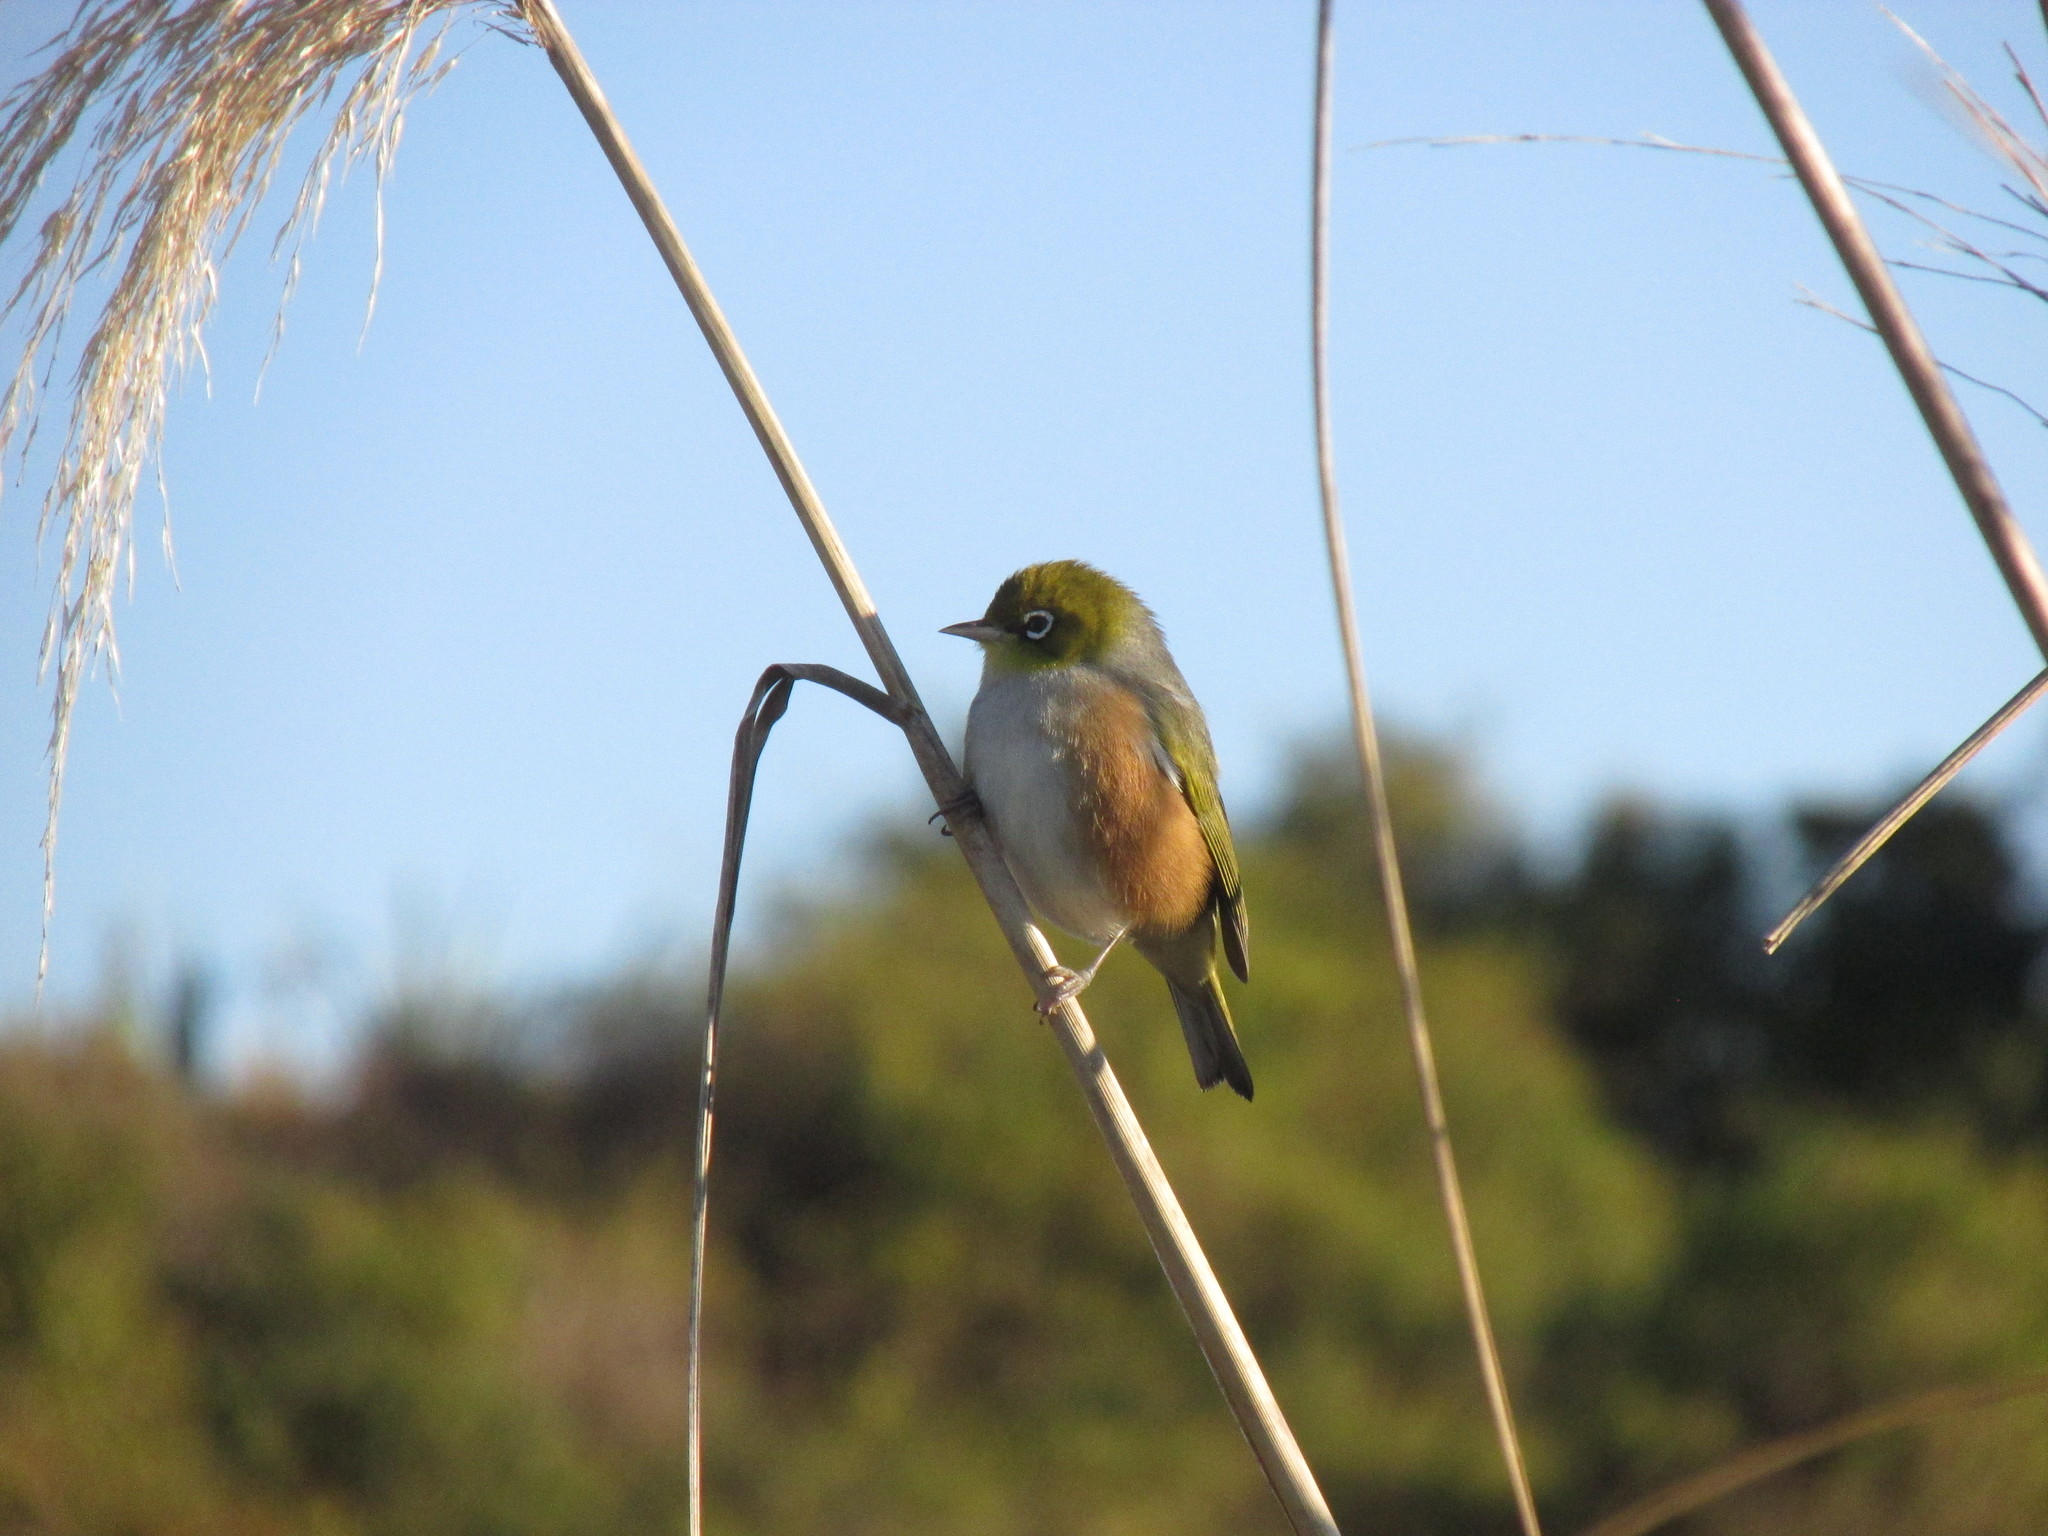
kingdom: Animalia
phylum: Chordata
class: Aves
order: Passeriformes
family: Zosteropidae
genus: Zosterops
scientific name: Zosterops lateralis
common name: Silvereye
